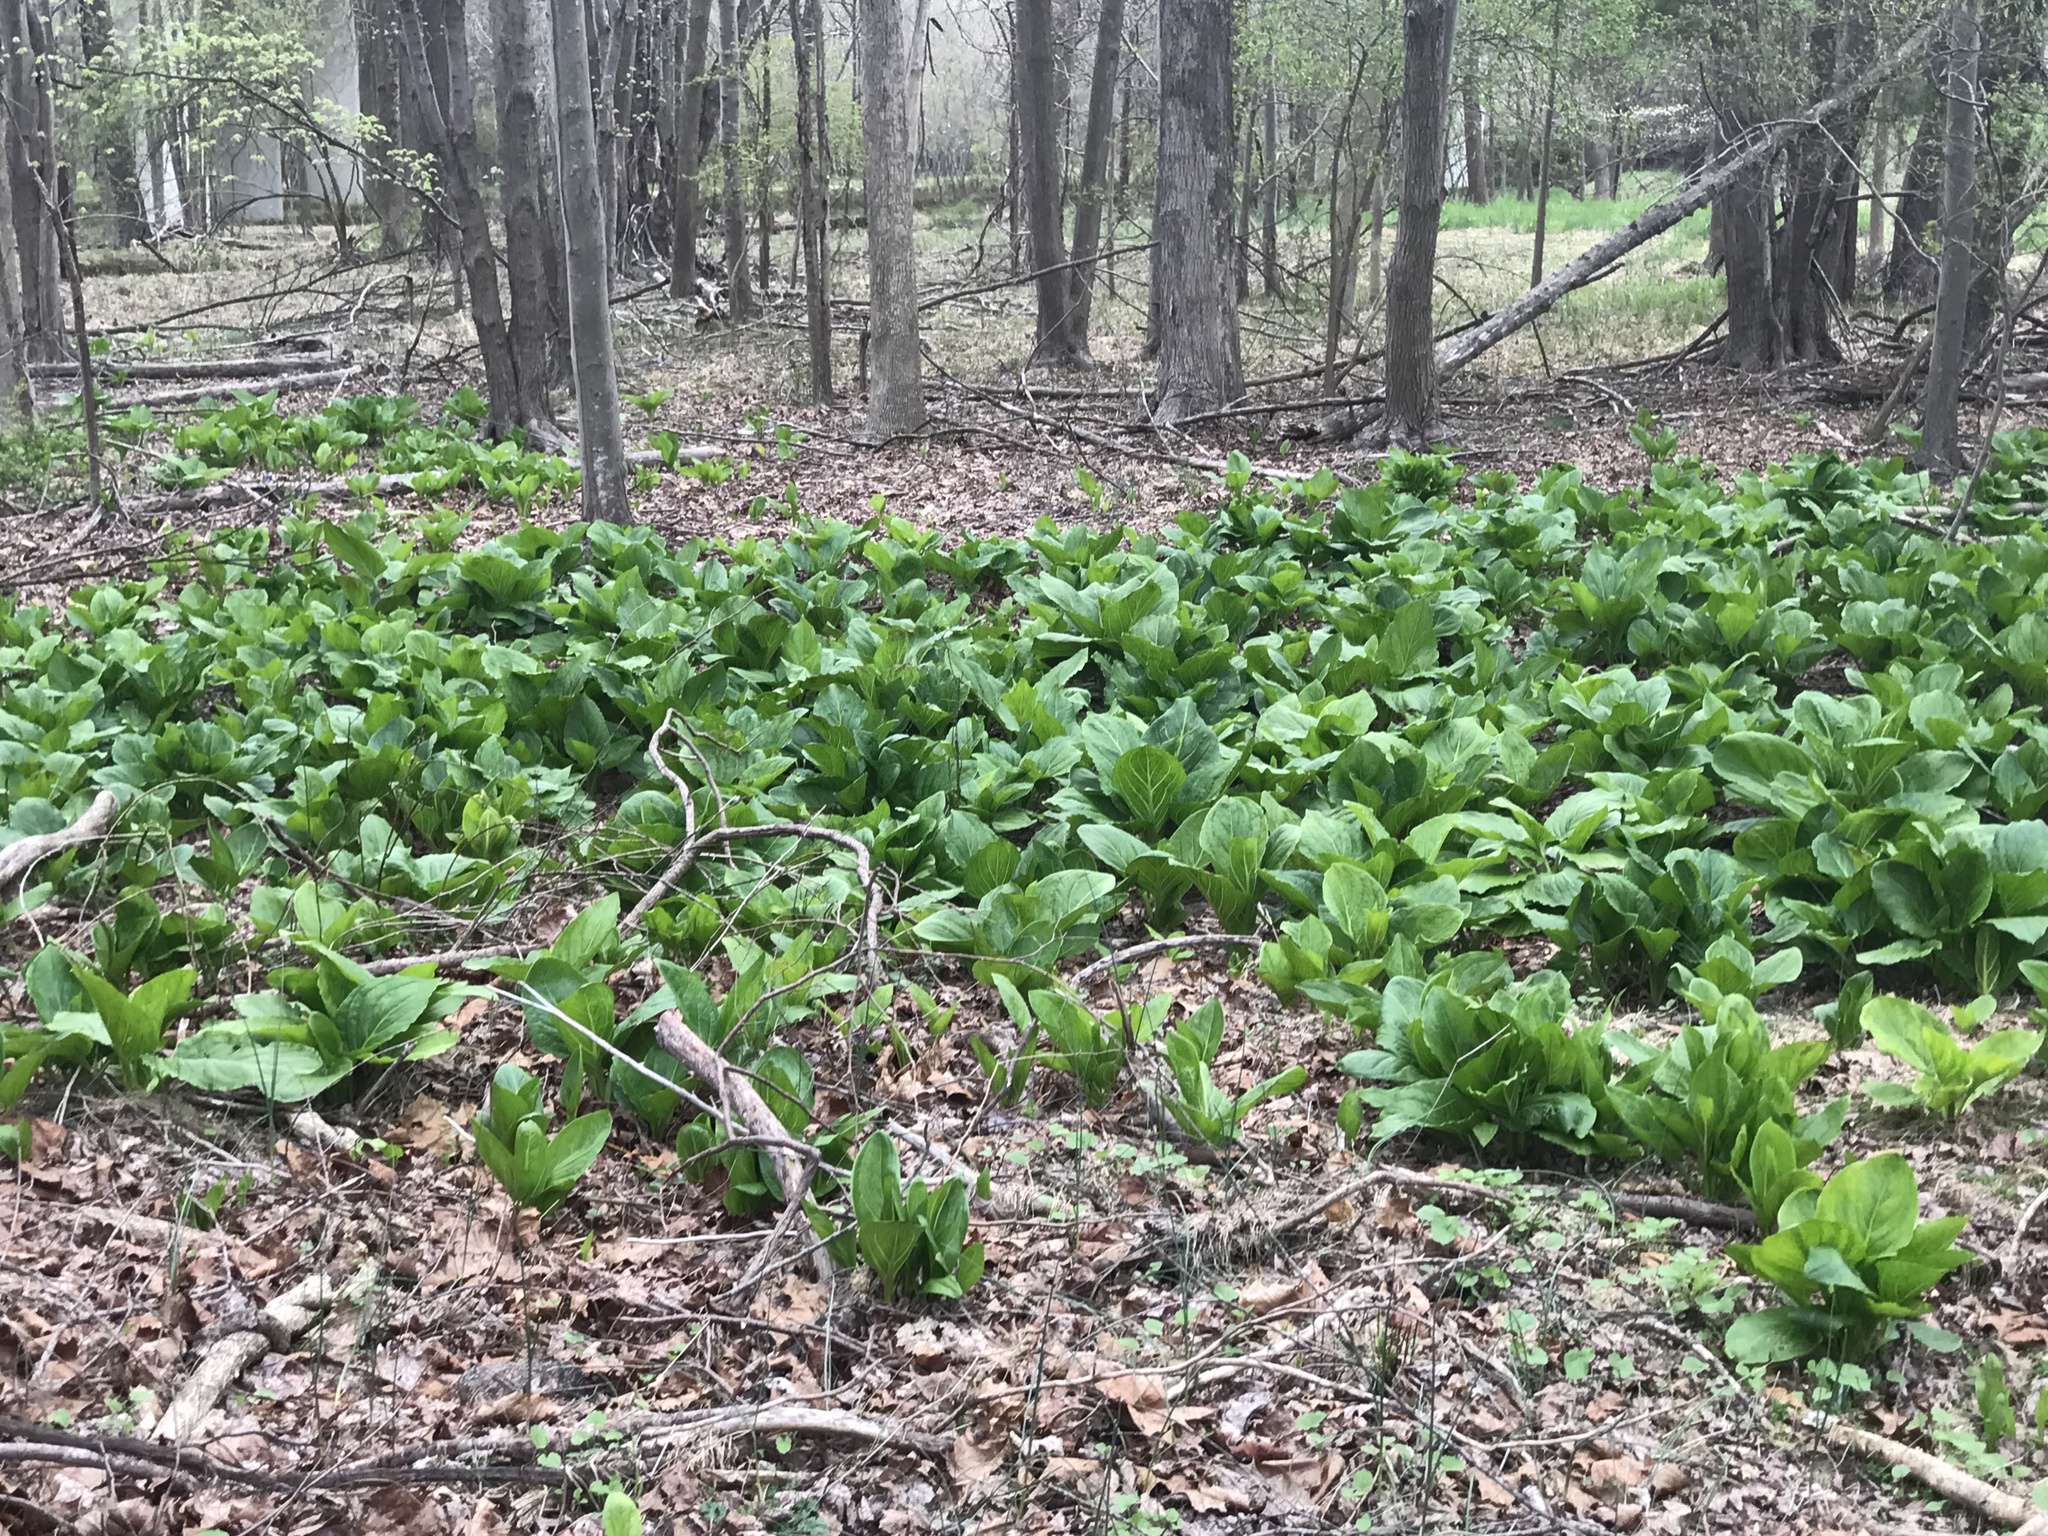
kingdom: Plantae
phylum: Tracheophyta
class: Liliopsida
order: Alismatales
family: Araceae
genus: Symplocarpus
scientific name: Symplocarpus foetidus
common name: Eastern skunk cabbage
